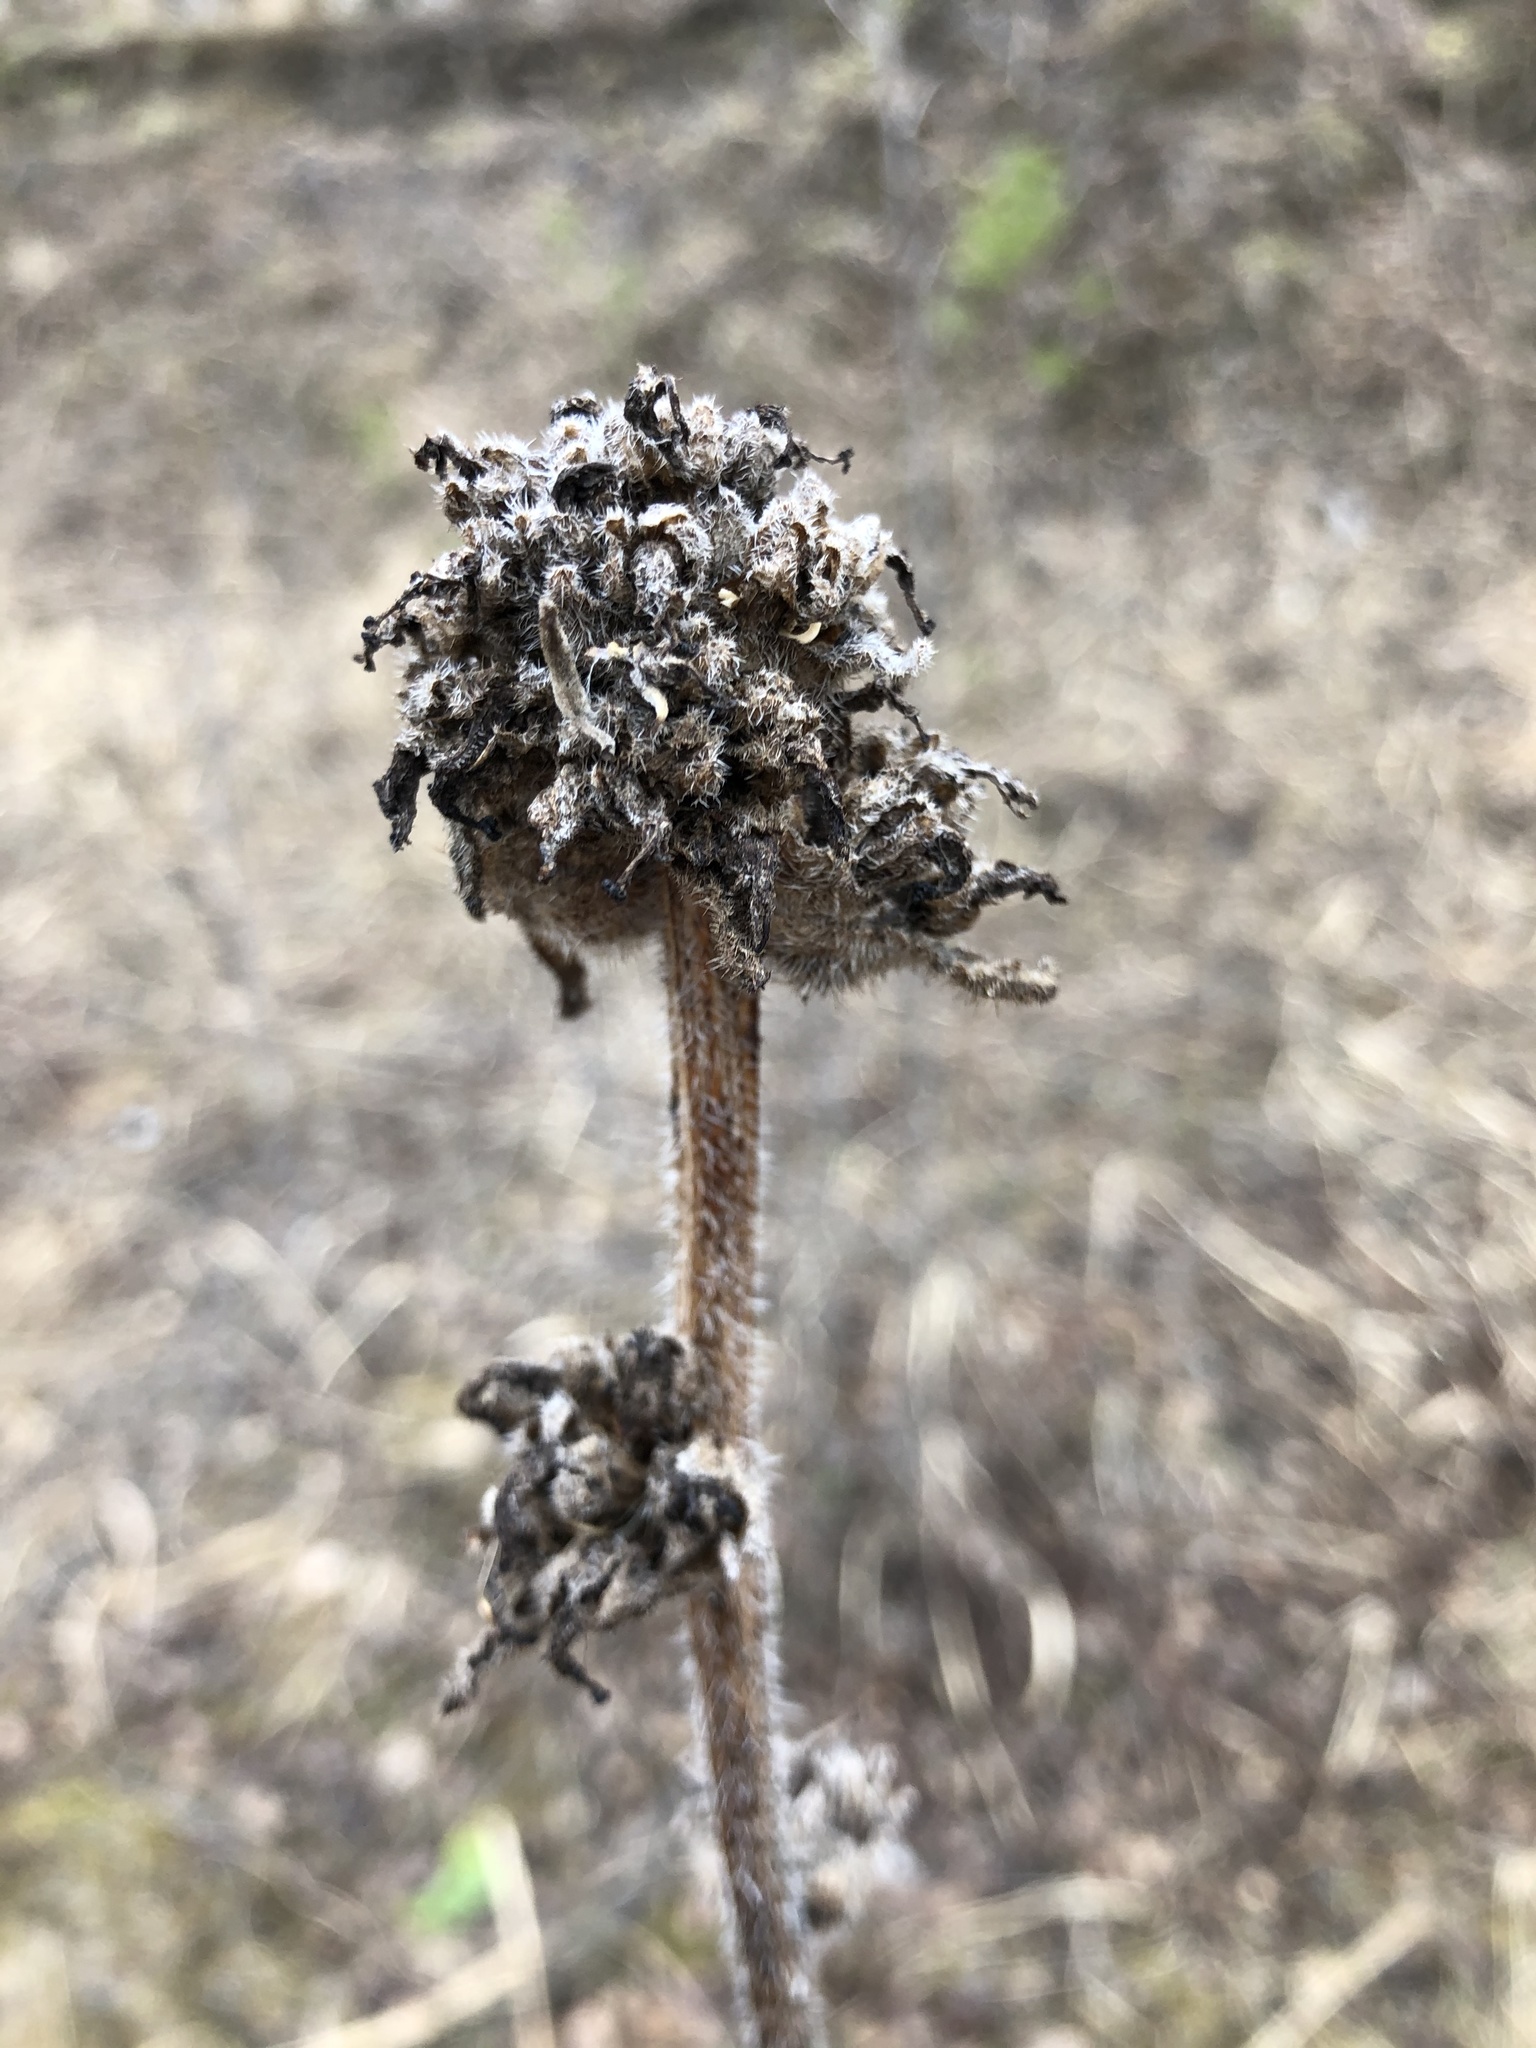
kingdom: Plantae
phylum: Tracheophyta
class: Magnoliopsida
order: Asterales
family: Campanulaceae
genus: Campanula
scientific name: Campanula cervicaria
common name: Bristly bellflower
